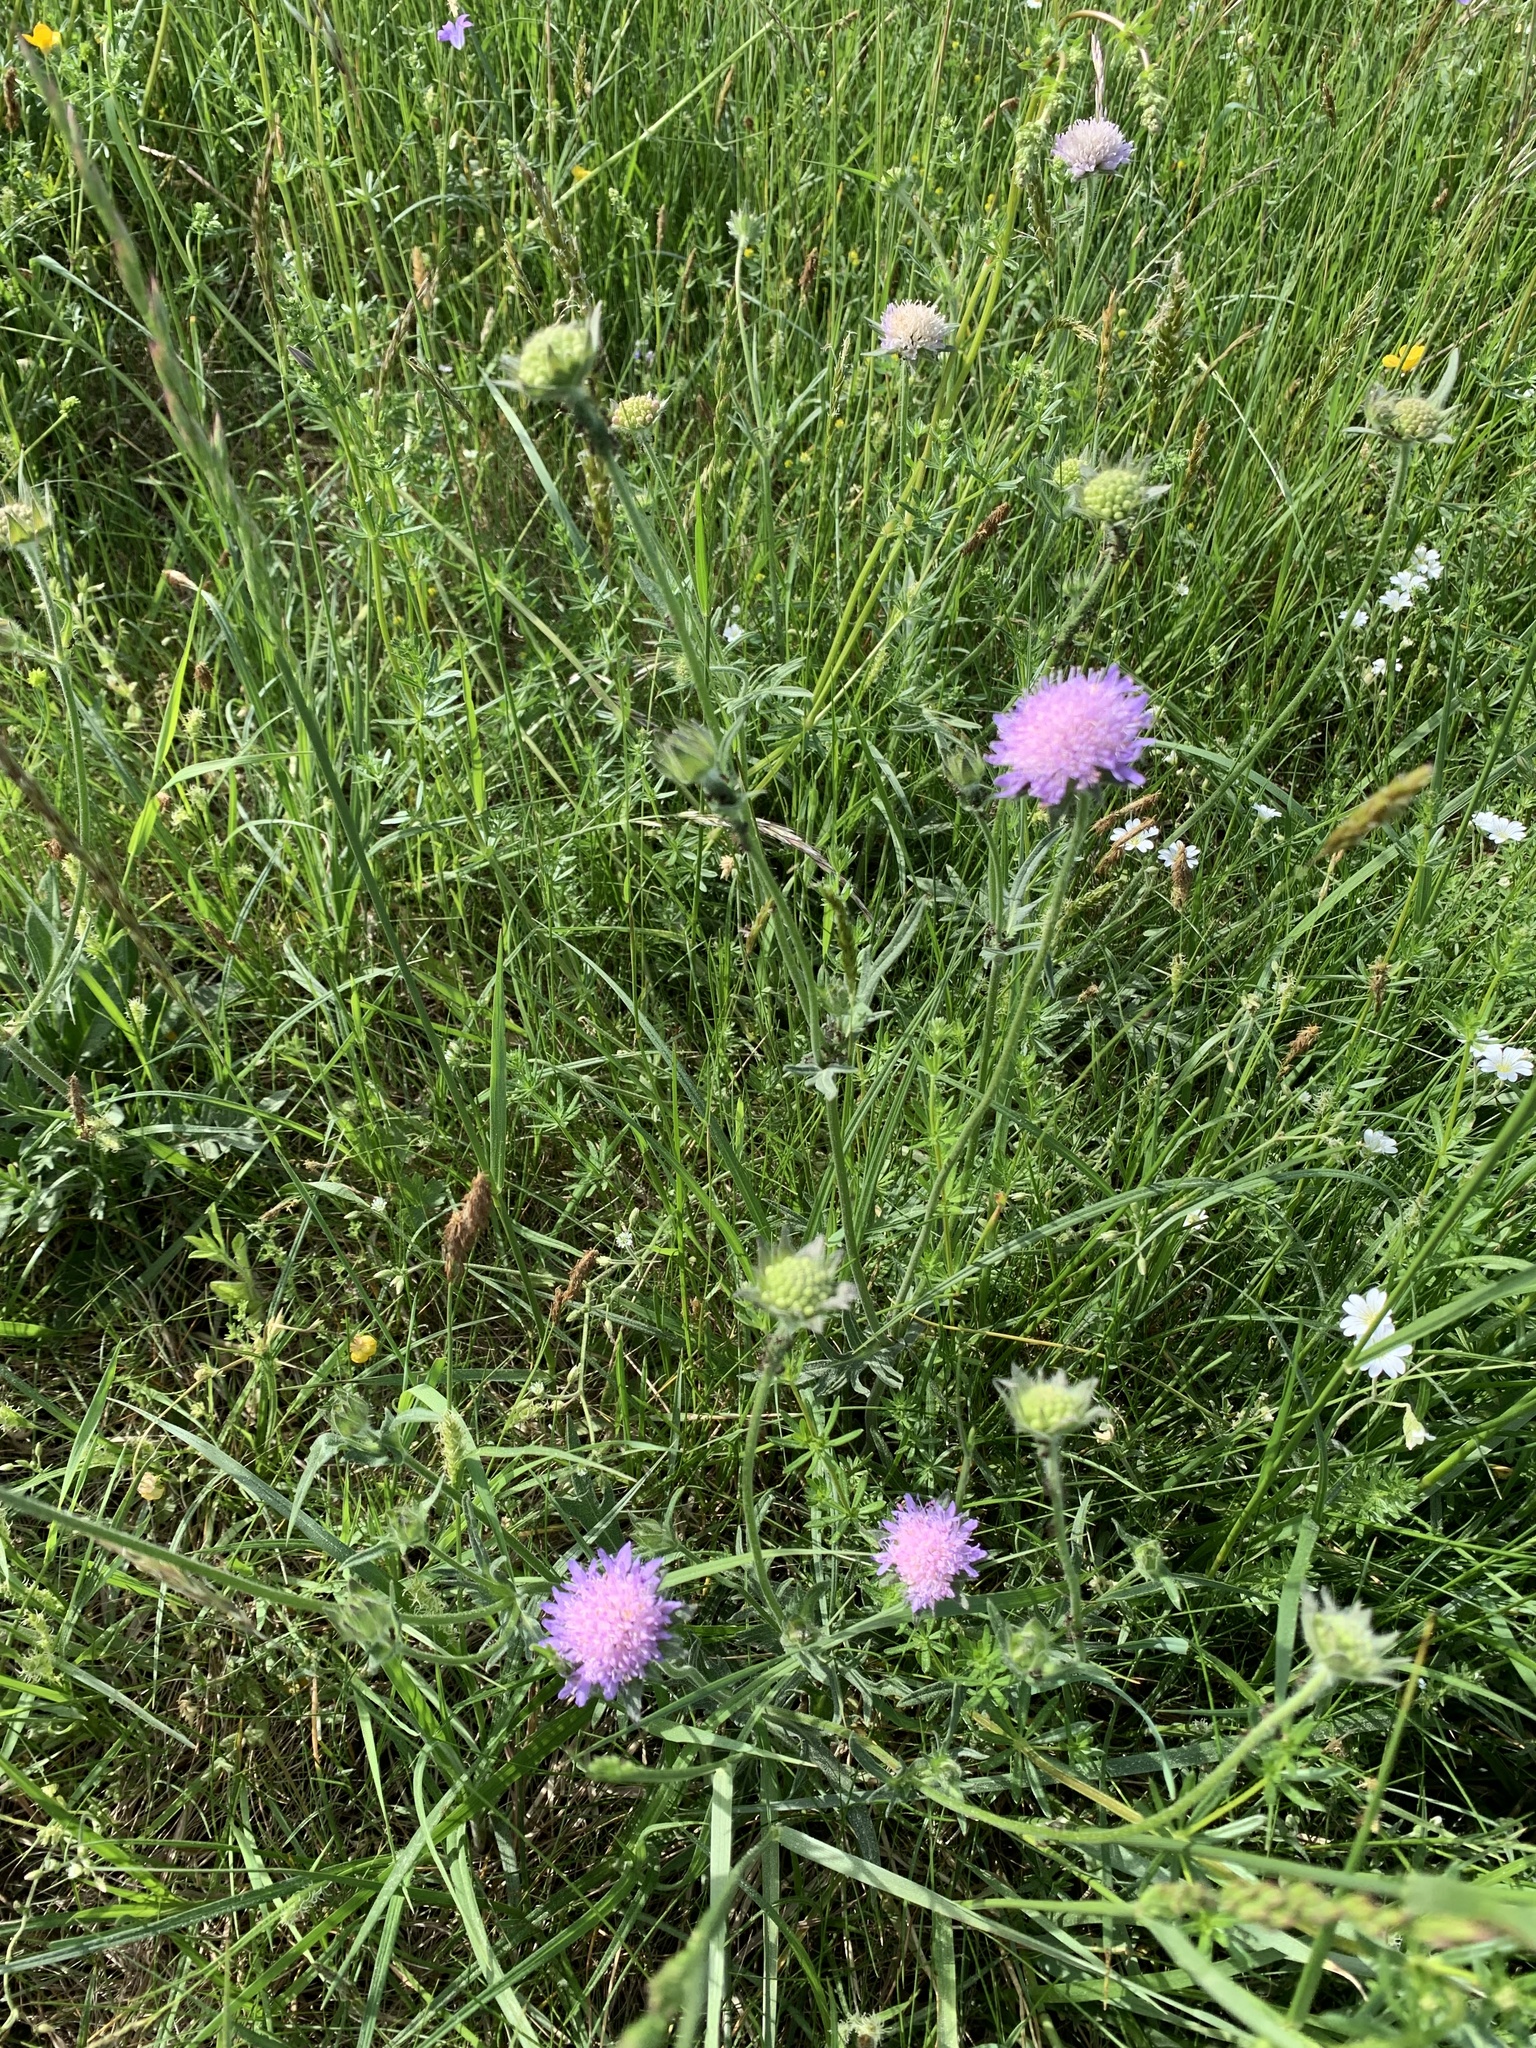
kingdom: Plantae
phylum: Tracheophyta
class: Magnoliopsida
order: Dipsacales
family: Caprifoliaceae
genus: Knautia
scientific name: Knautia arvensis
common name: Field scabiosa
